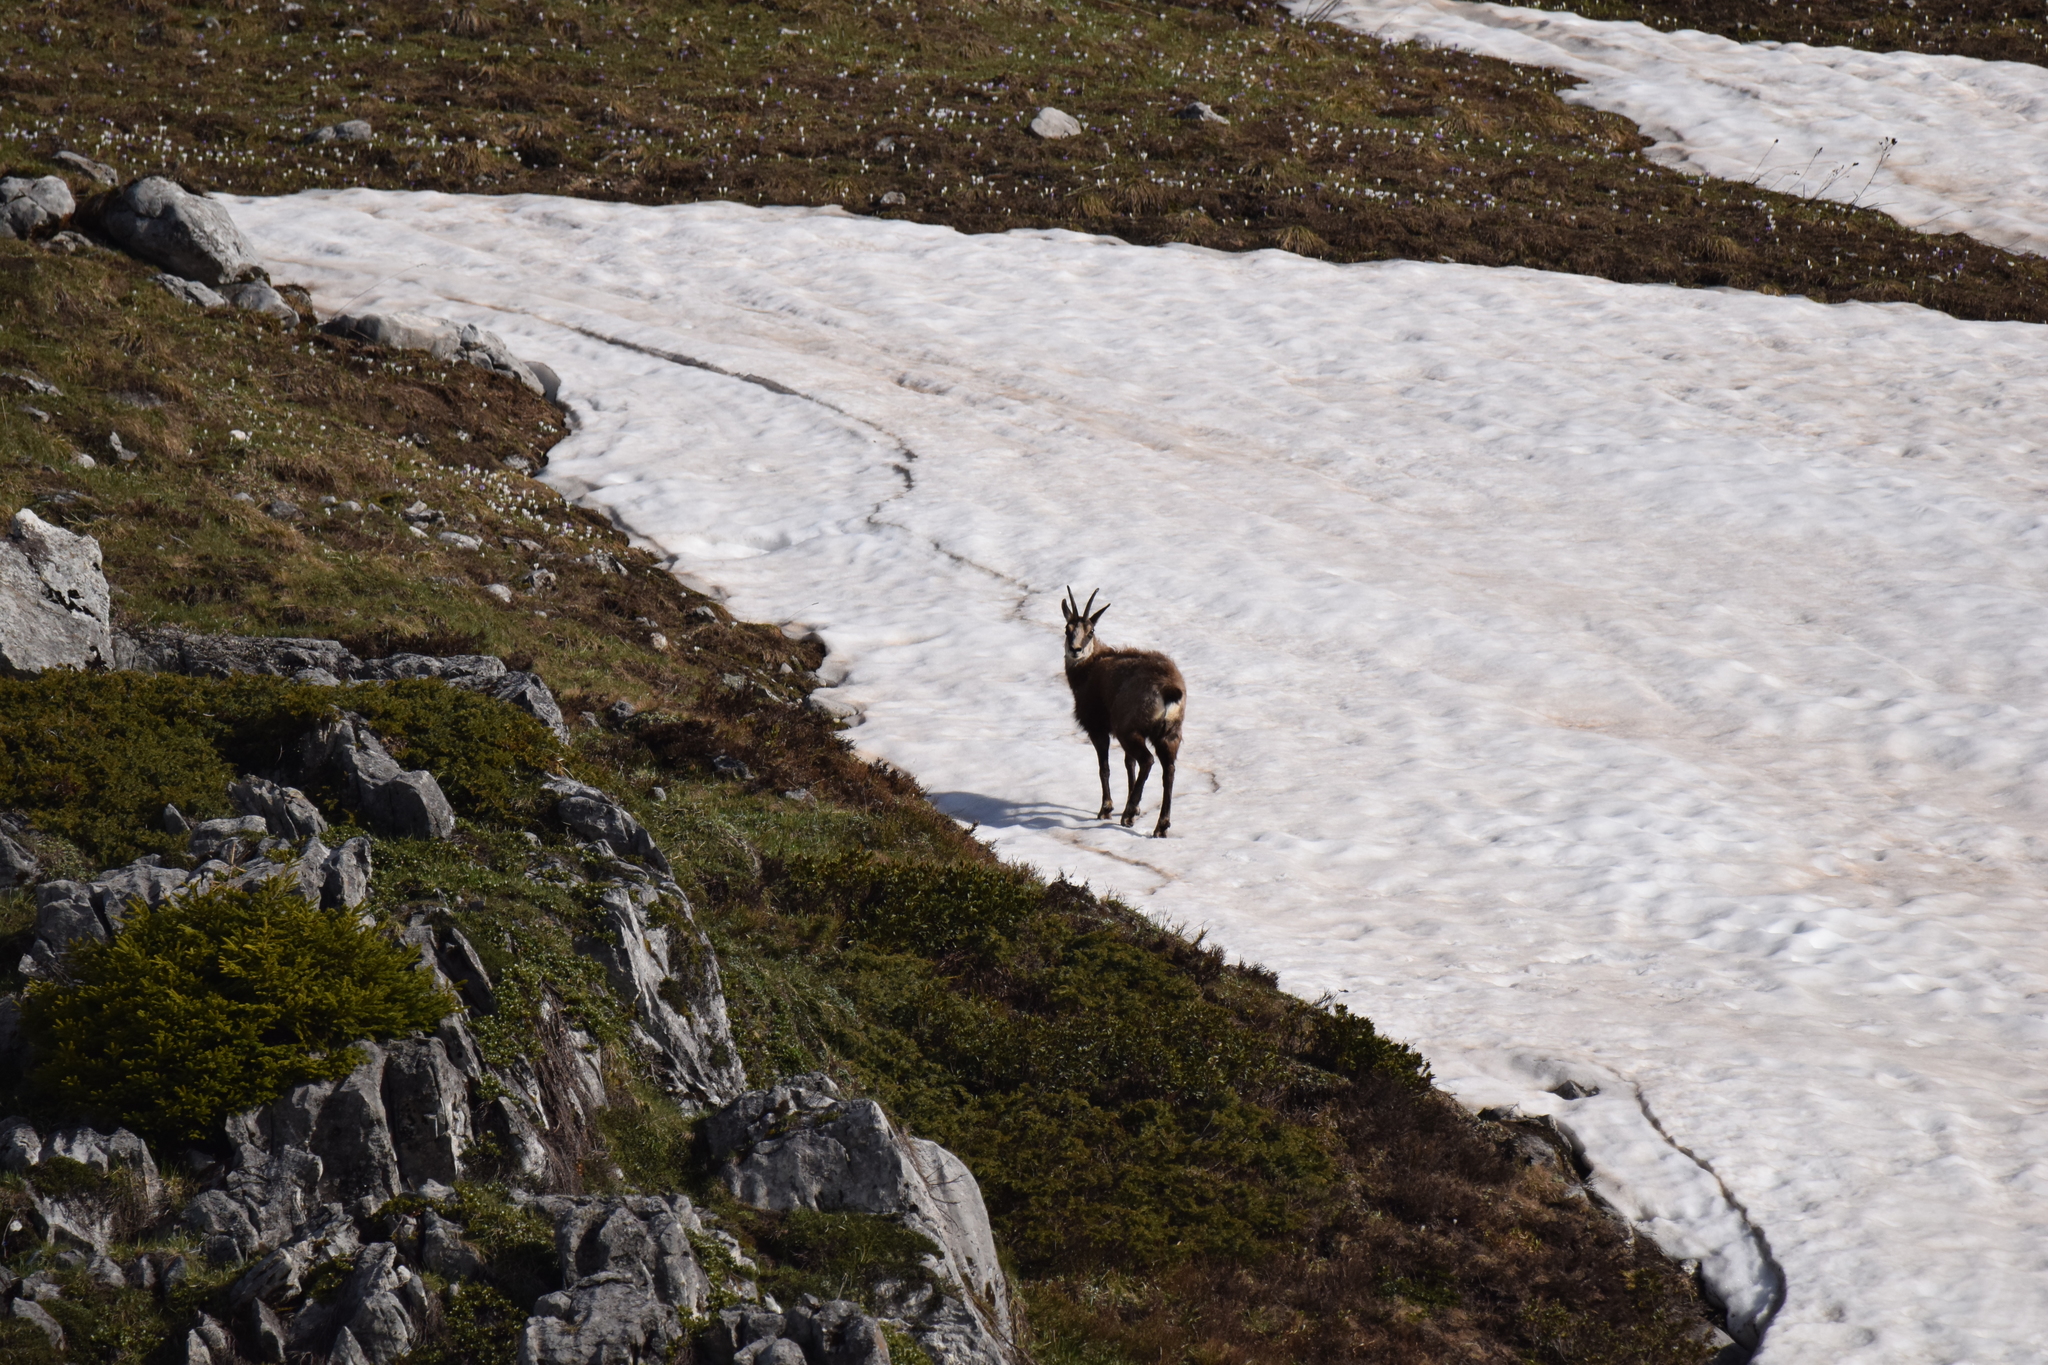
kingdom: Animalia
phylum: Chordata
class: Mammalia
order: Artiodactyla
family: Bovidae
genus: Rupicapra
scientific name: Rupicapra rupicapra
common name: Chamois
